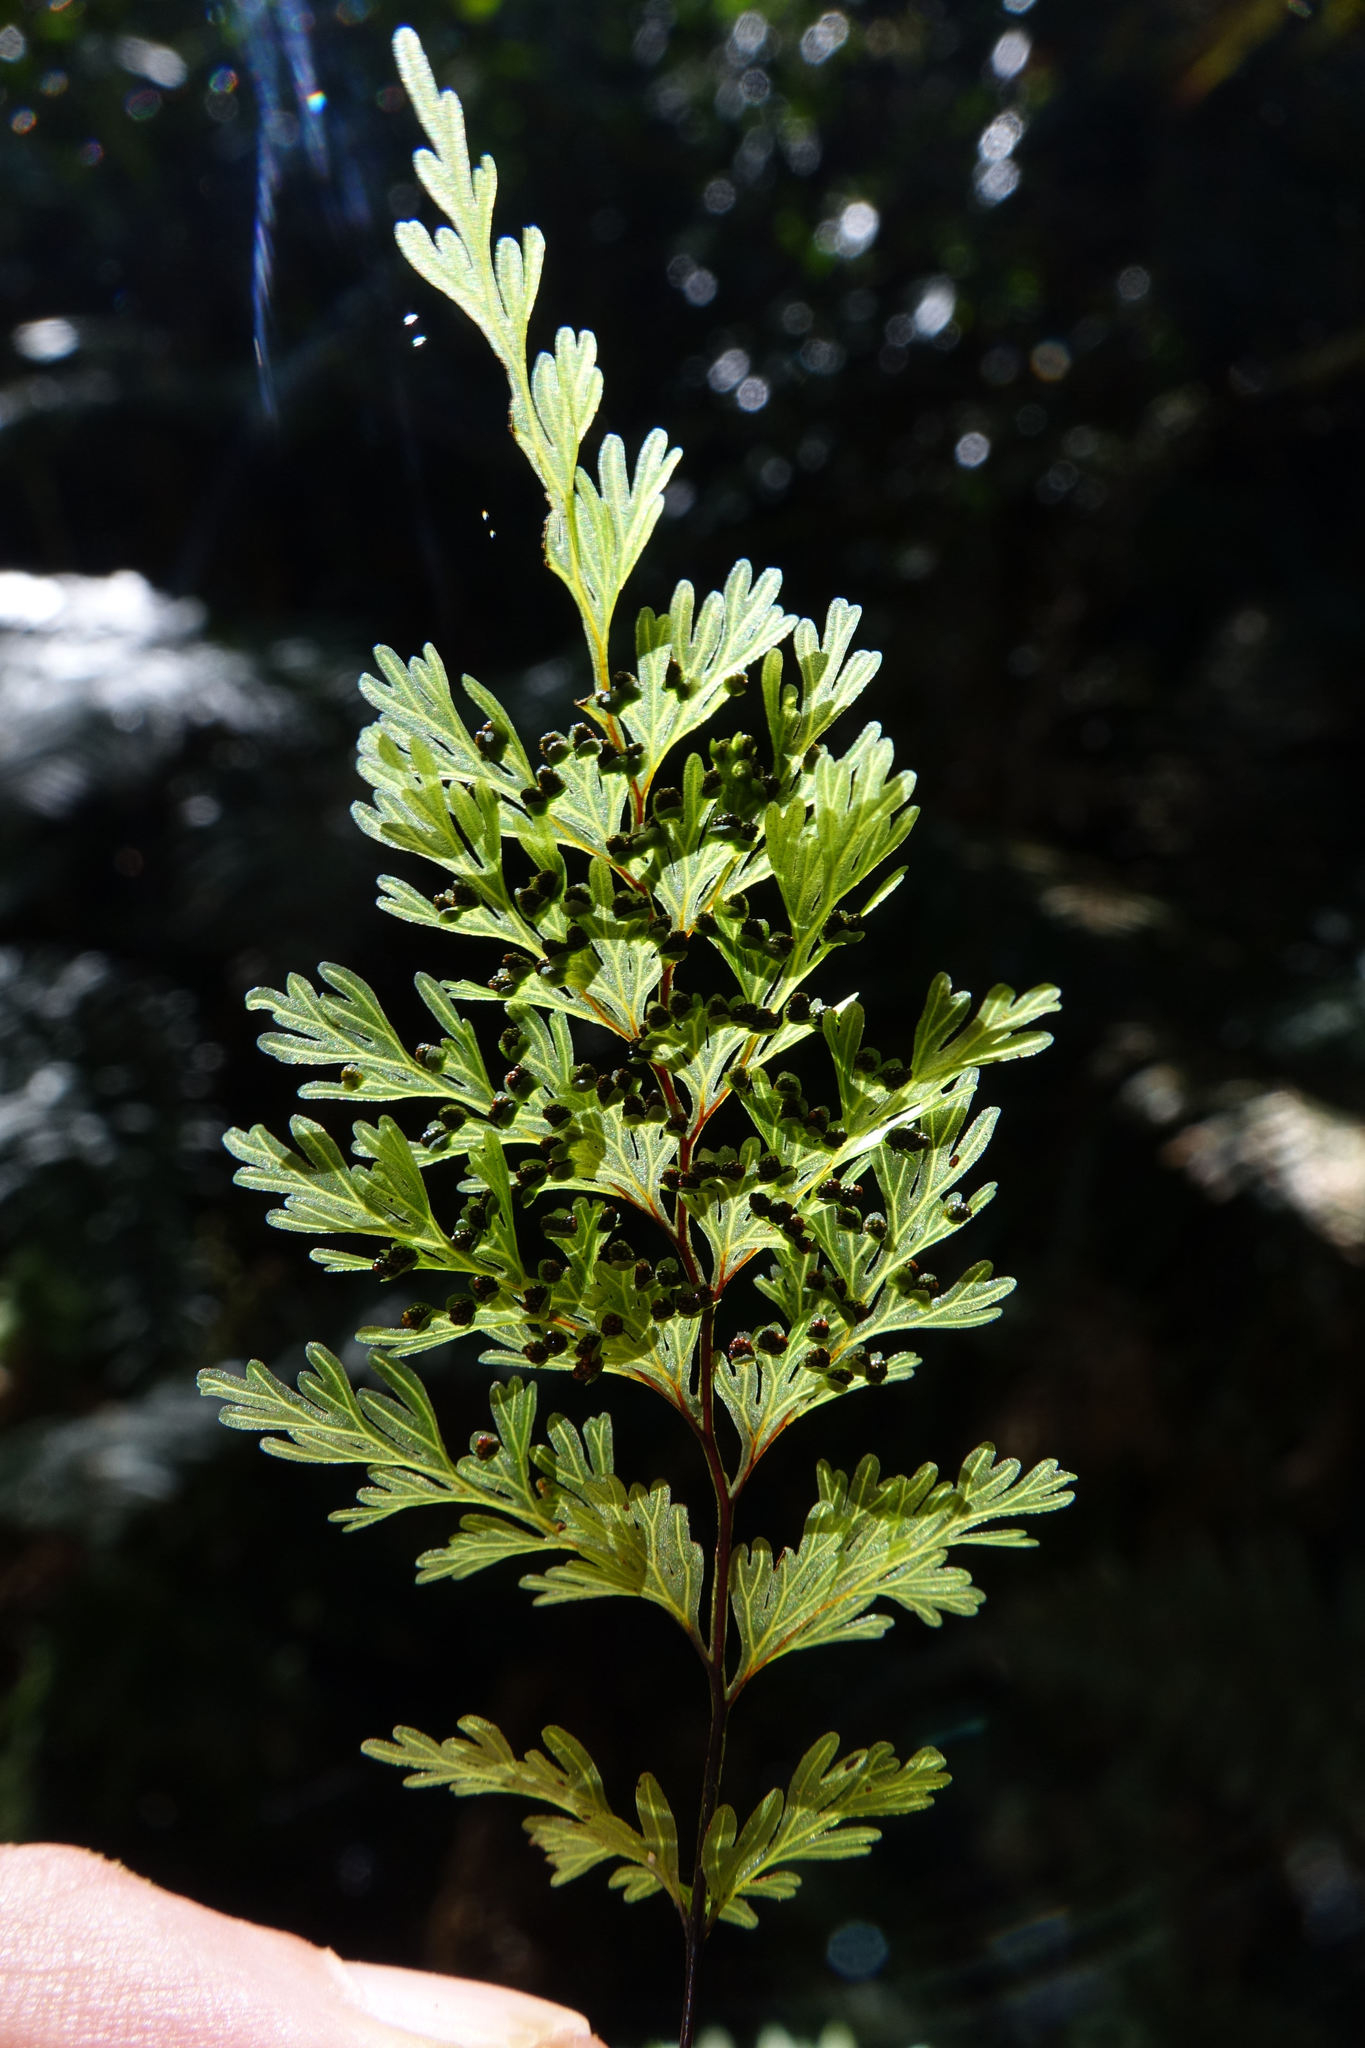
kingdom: Plantae
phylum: Tracheophyta
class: Polypodiopsida
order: Hymenophyllales
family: Hymenophyllaceae
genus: Hymenophyllum
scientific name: Hymenophyllum demissum
